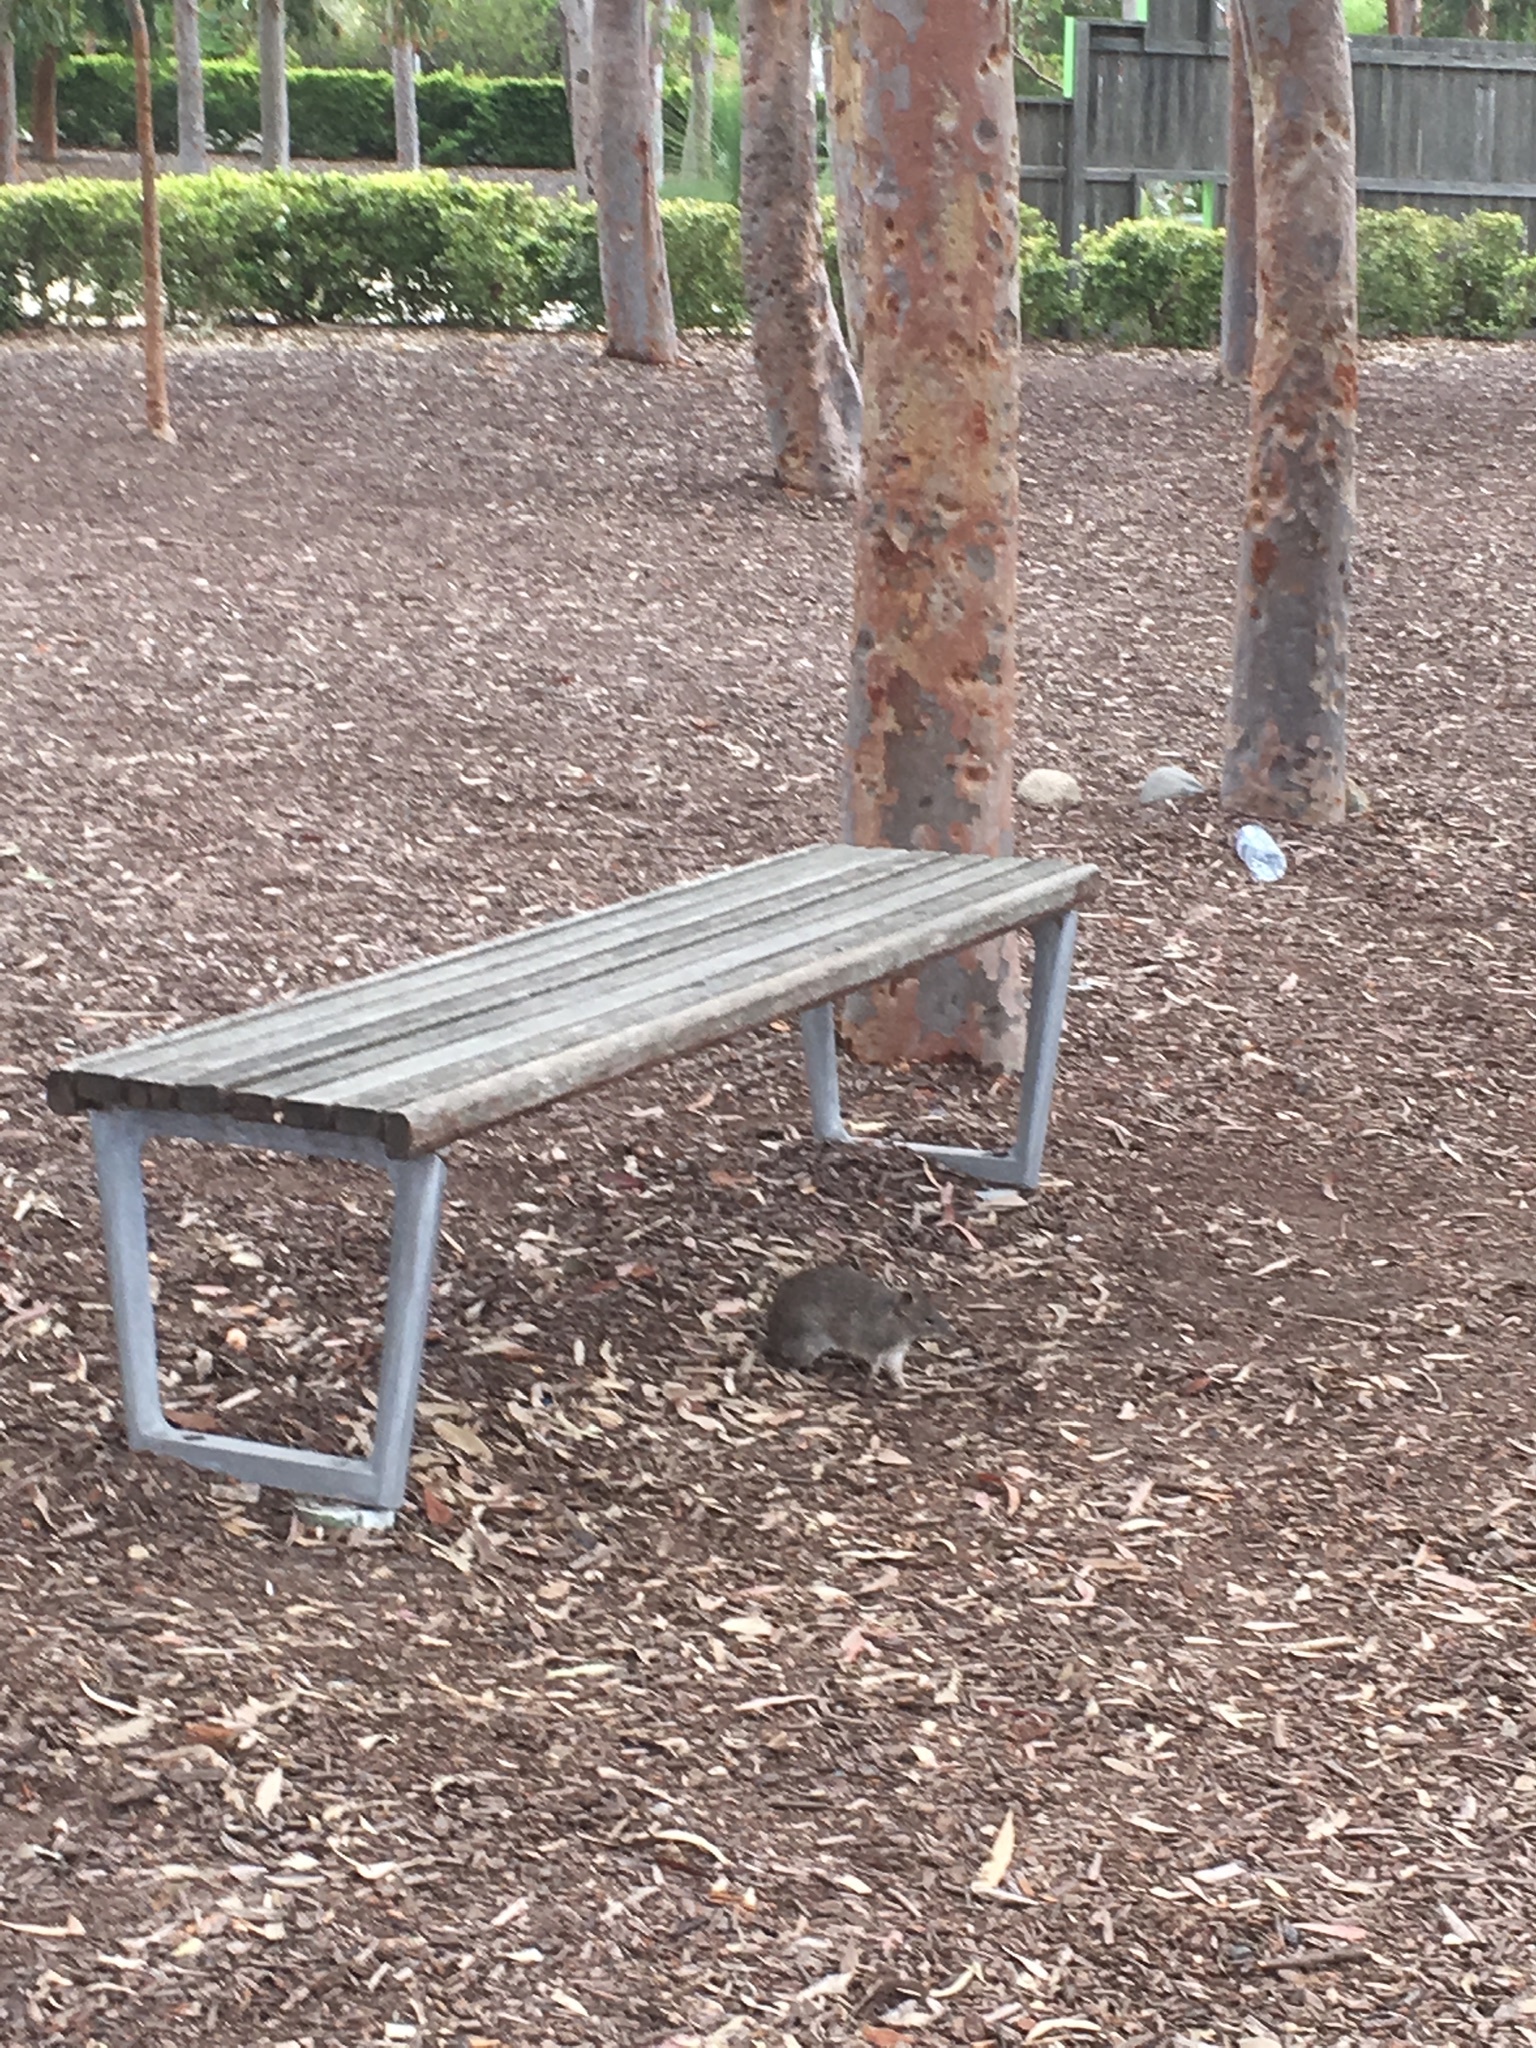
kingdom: Animalia
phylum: Chordata
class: Mammalia
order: Peramelemorphia
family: Peramelidae
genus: Isoodon
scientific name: Isoodon obesulus
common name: Southern brown bandicoot
